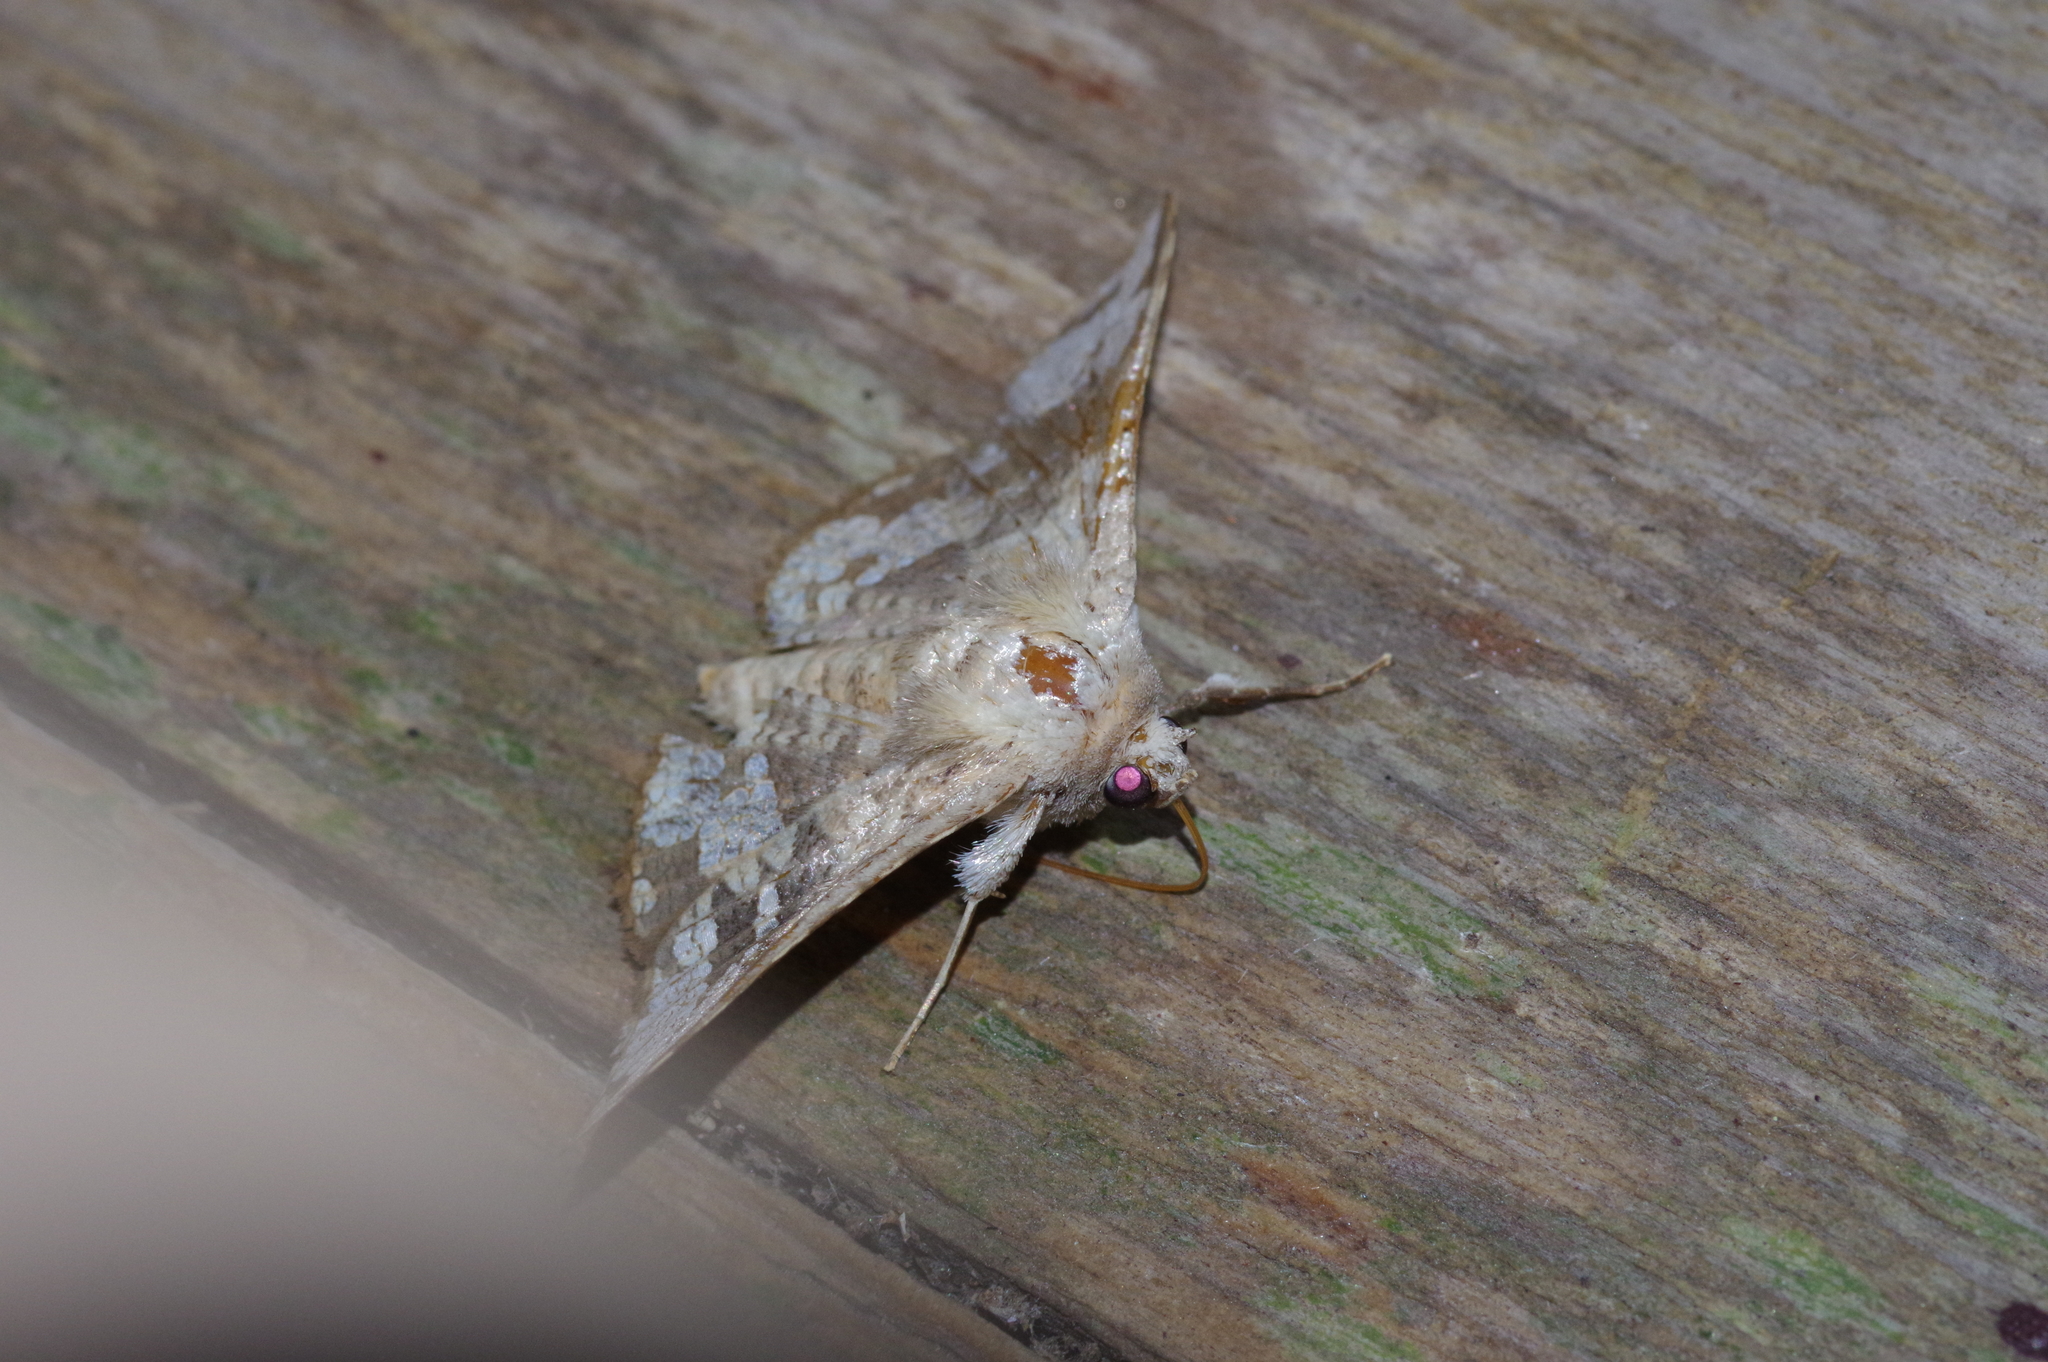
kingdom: Animalia
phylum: Arthropoda
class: Insecta
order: Lepidoptera
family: Thyrididae
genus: Canaea
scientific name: Canaea ryukyuensis
